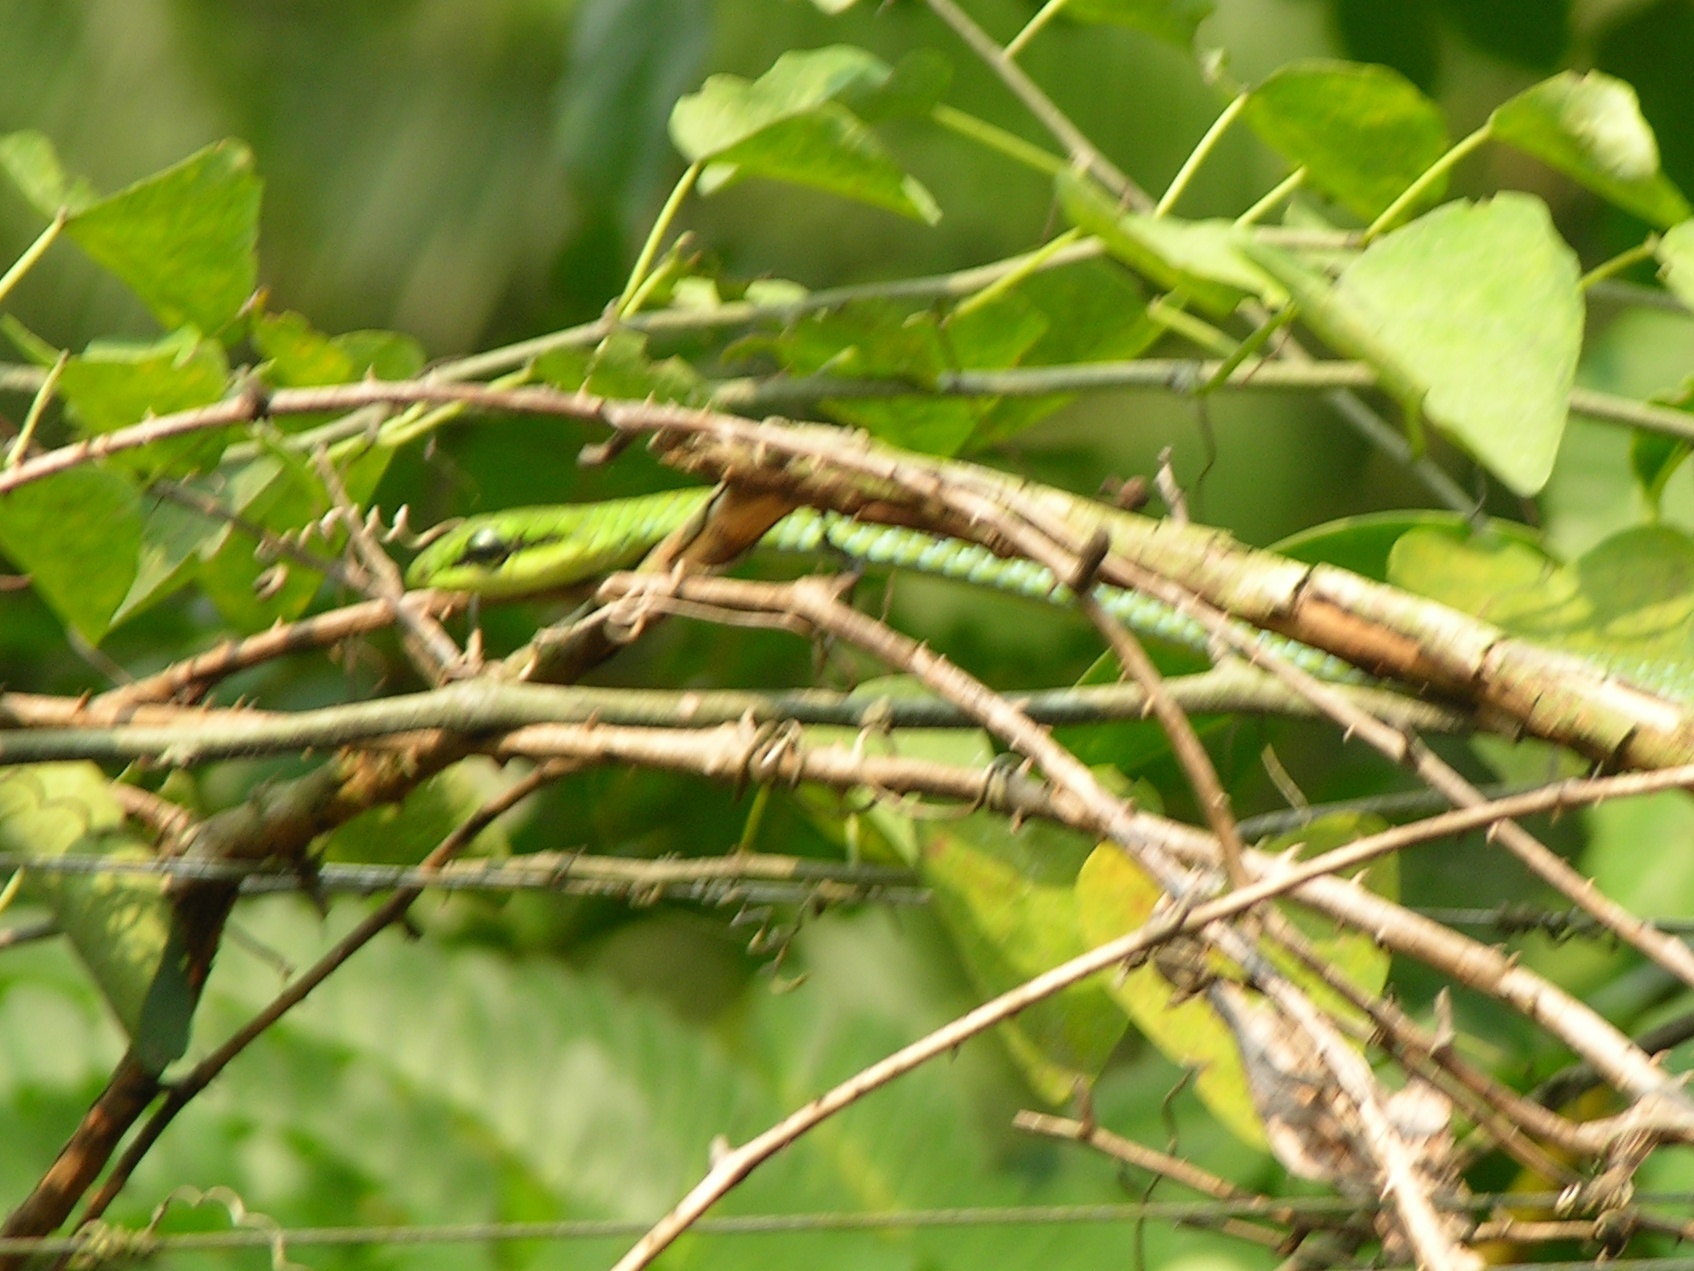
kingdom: Animalia
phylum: Chordata
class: Squamata
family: Colubridae
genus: Hapsidophrys
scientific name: Hapsidophrys smaragdinus
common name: Emerald snake
